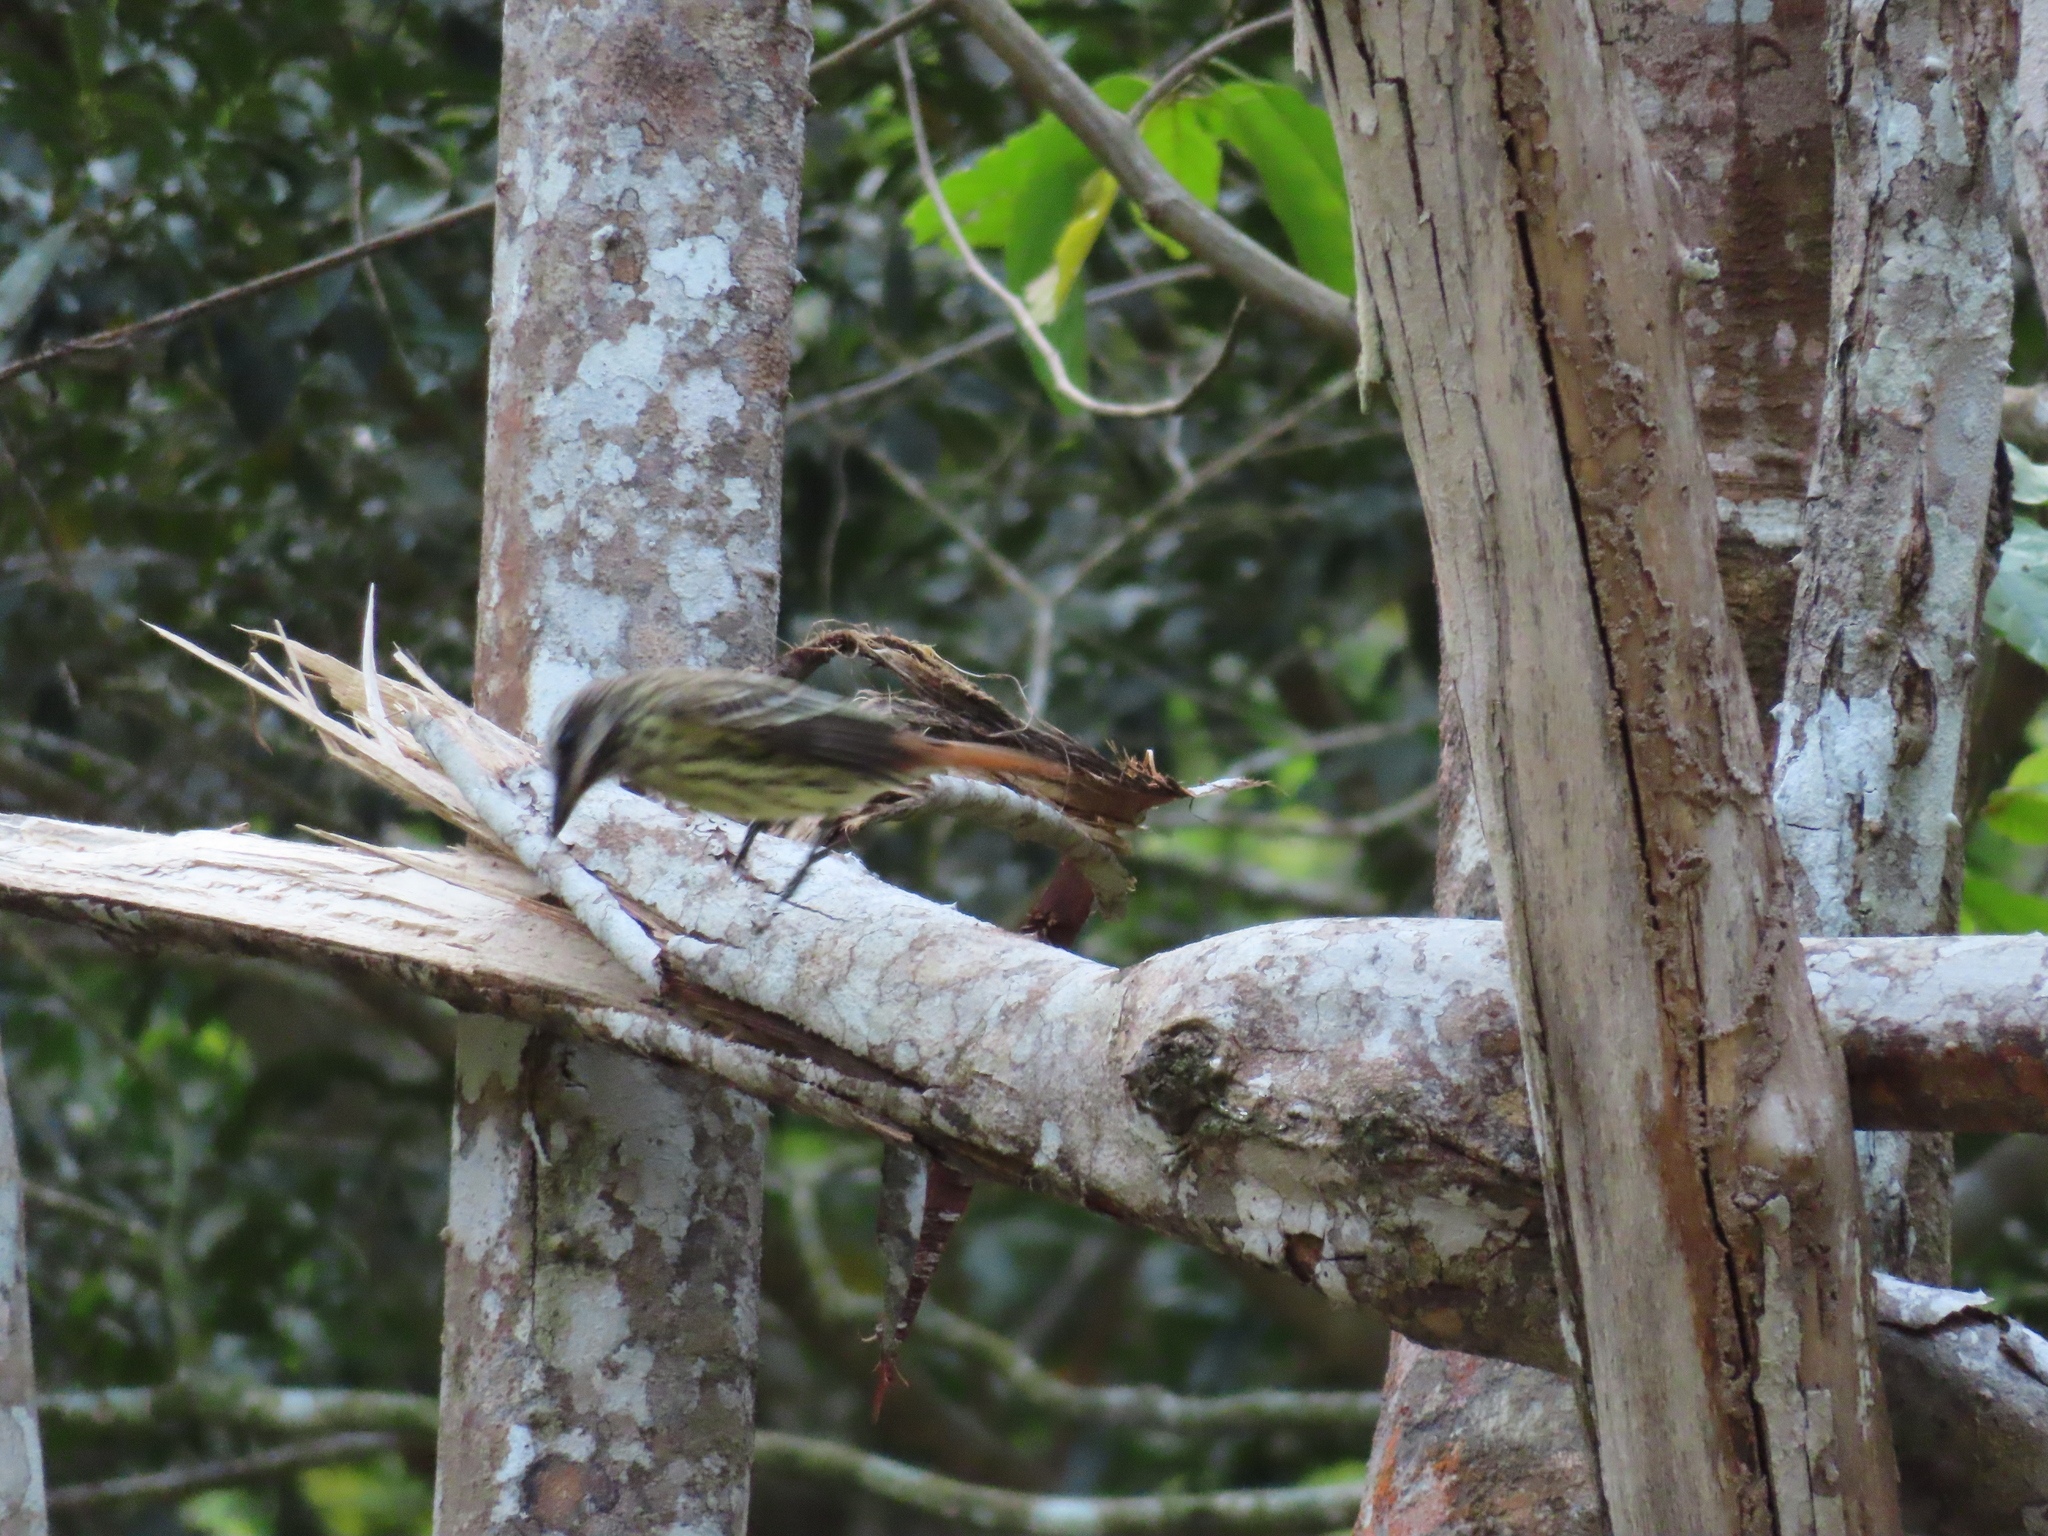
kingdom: Animalia
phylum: Chordata
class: Aves
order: Passeriformes
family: Tyrannidae
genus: Myiodynastes
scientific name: Myiodynastes luteiventris
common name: Sulphur-bellied flycatcher
